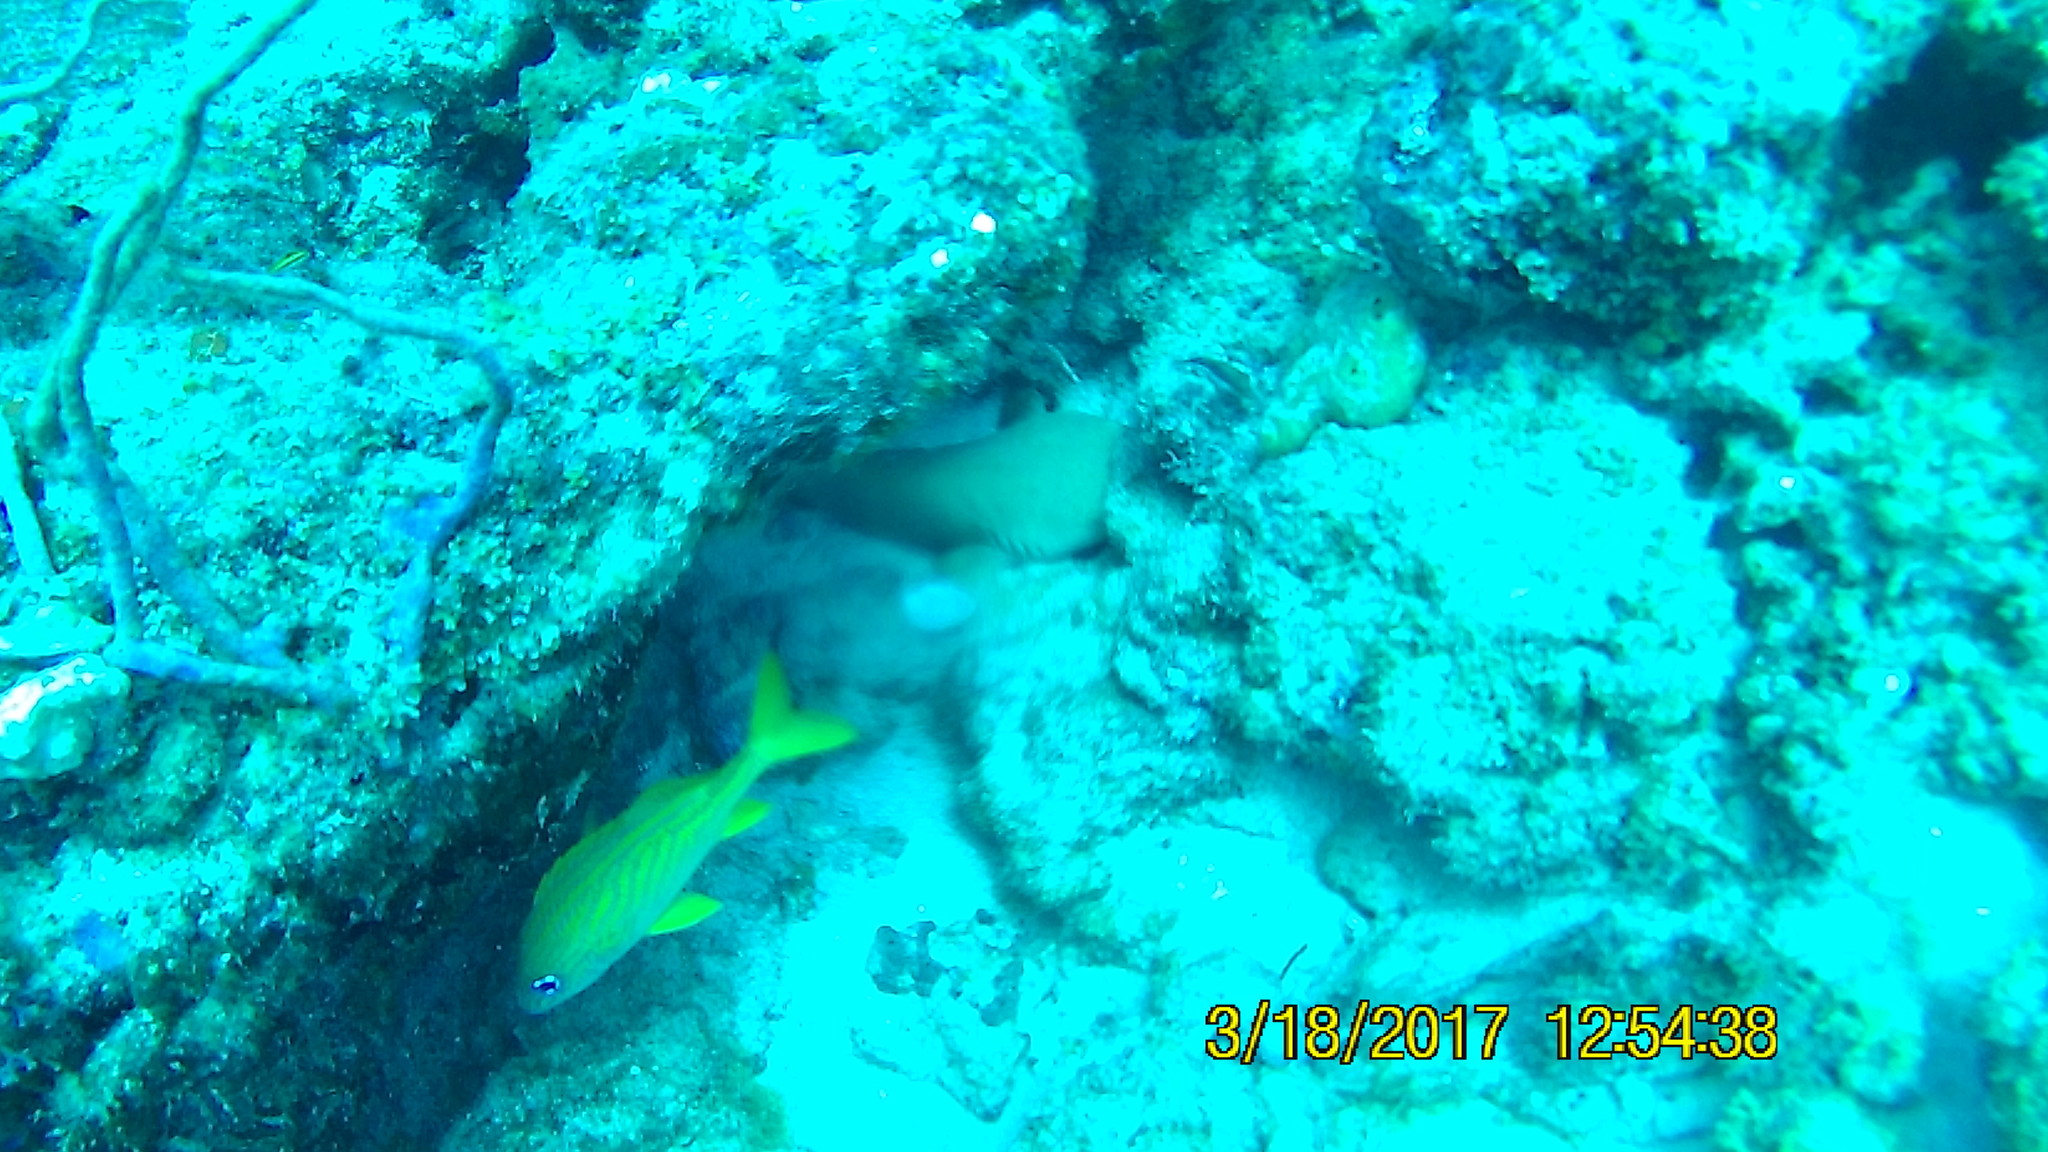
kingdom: Animalia
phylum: Chordata
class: Elasmobranchii
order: Orectolobiformes
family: Ginglymostomatidae
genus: Ginglymostoma
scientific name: Ginglymostoma cirratum
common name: Nurse shark
